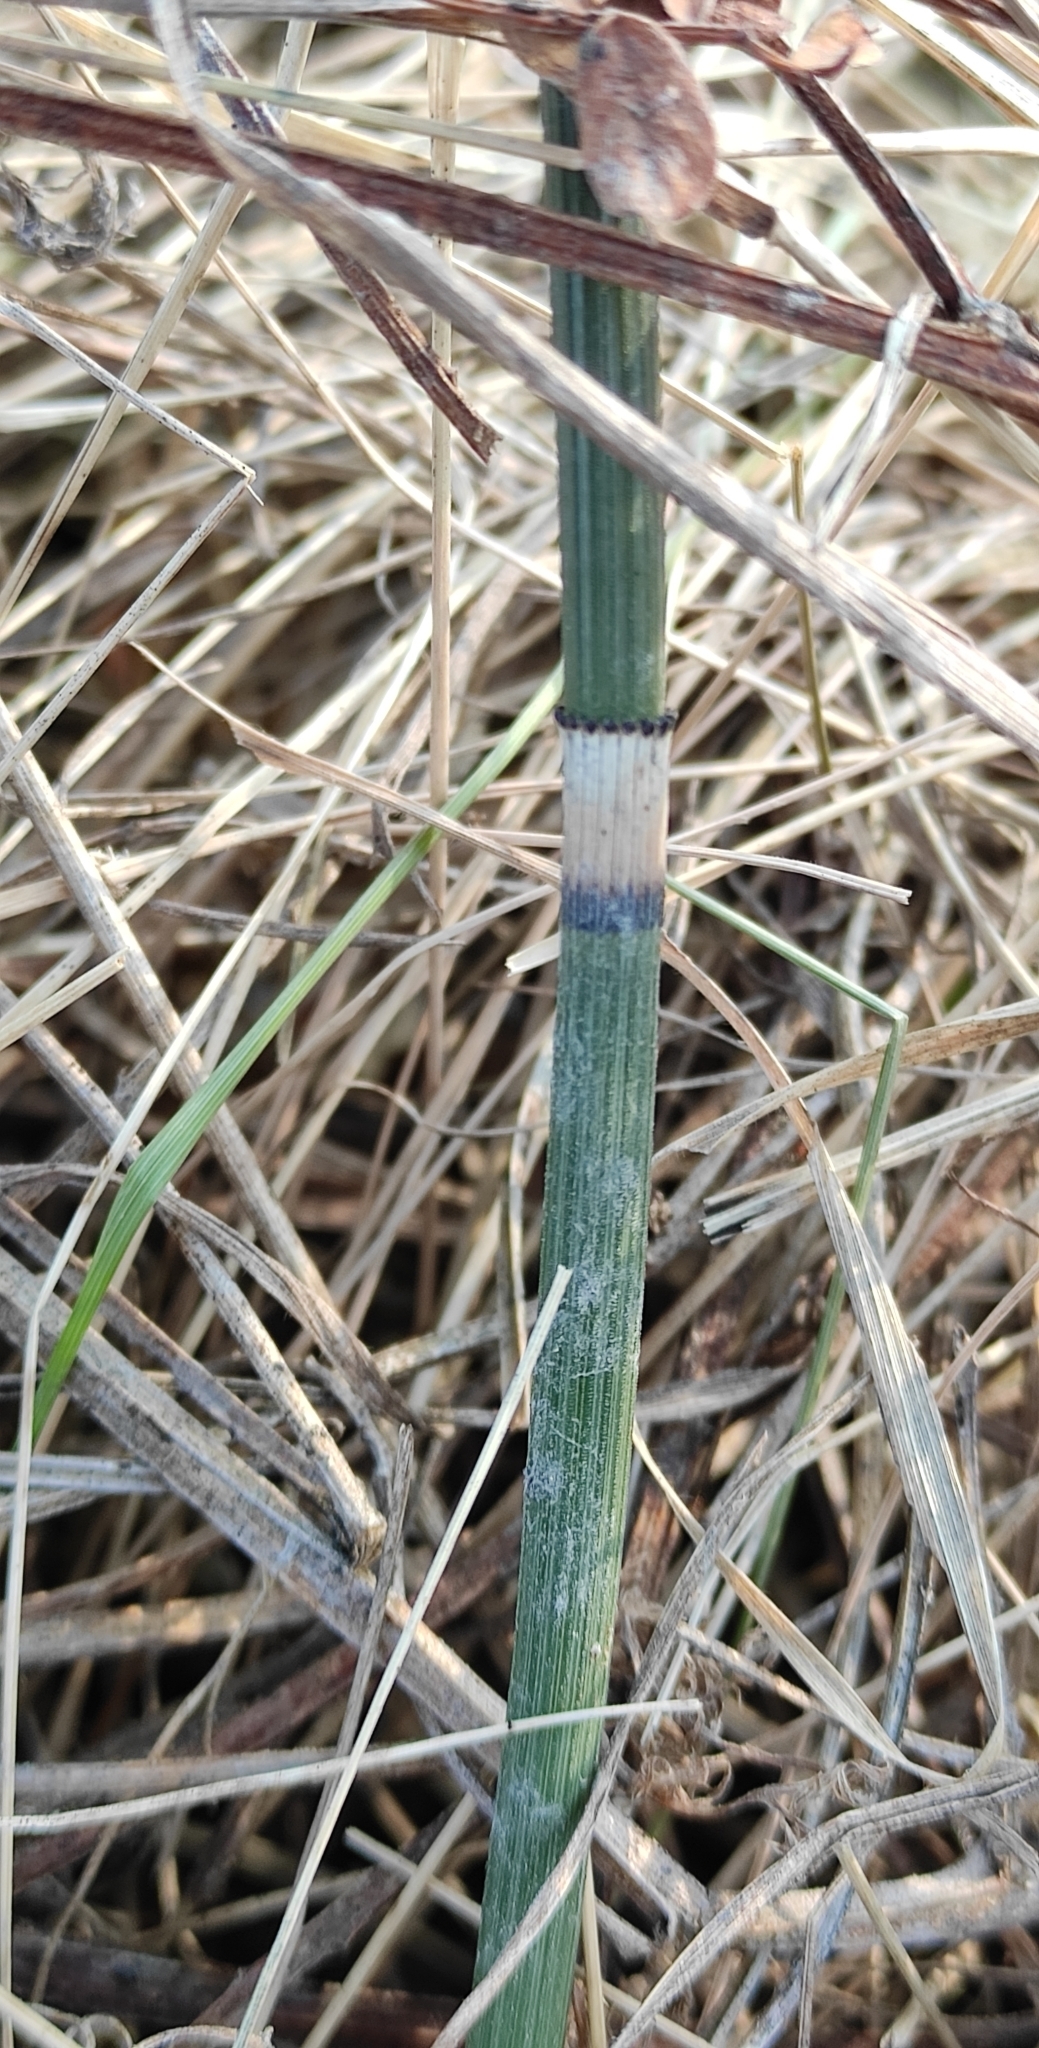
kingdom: Plantae
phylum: Tracheophyta
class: Polypodiopsida
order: Equisetales
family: Equisetaceae
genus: Equisetum
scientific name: Equisetum moorei
